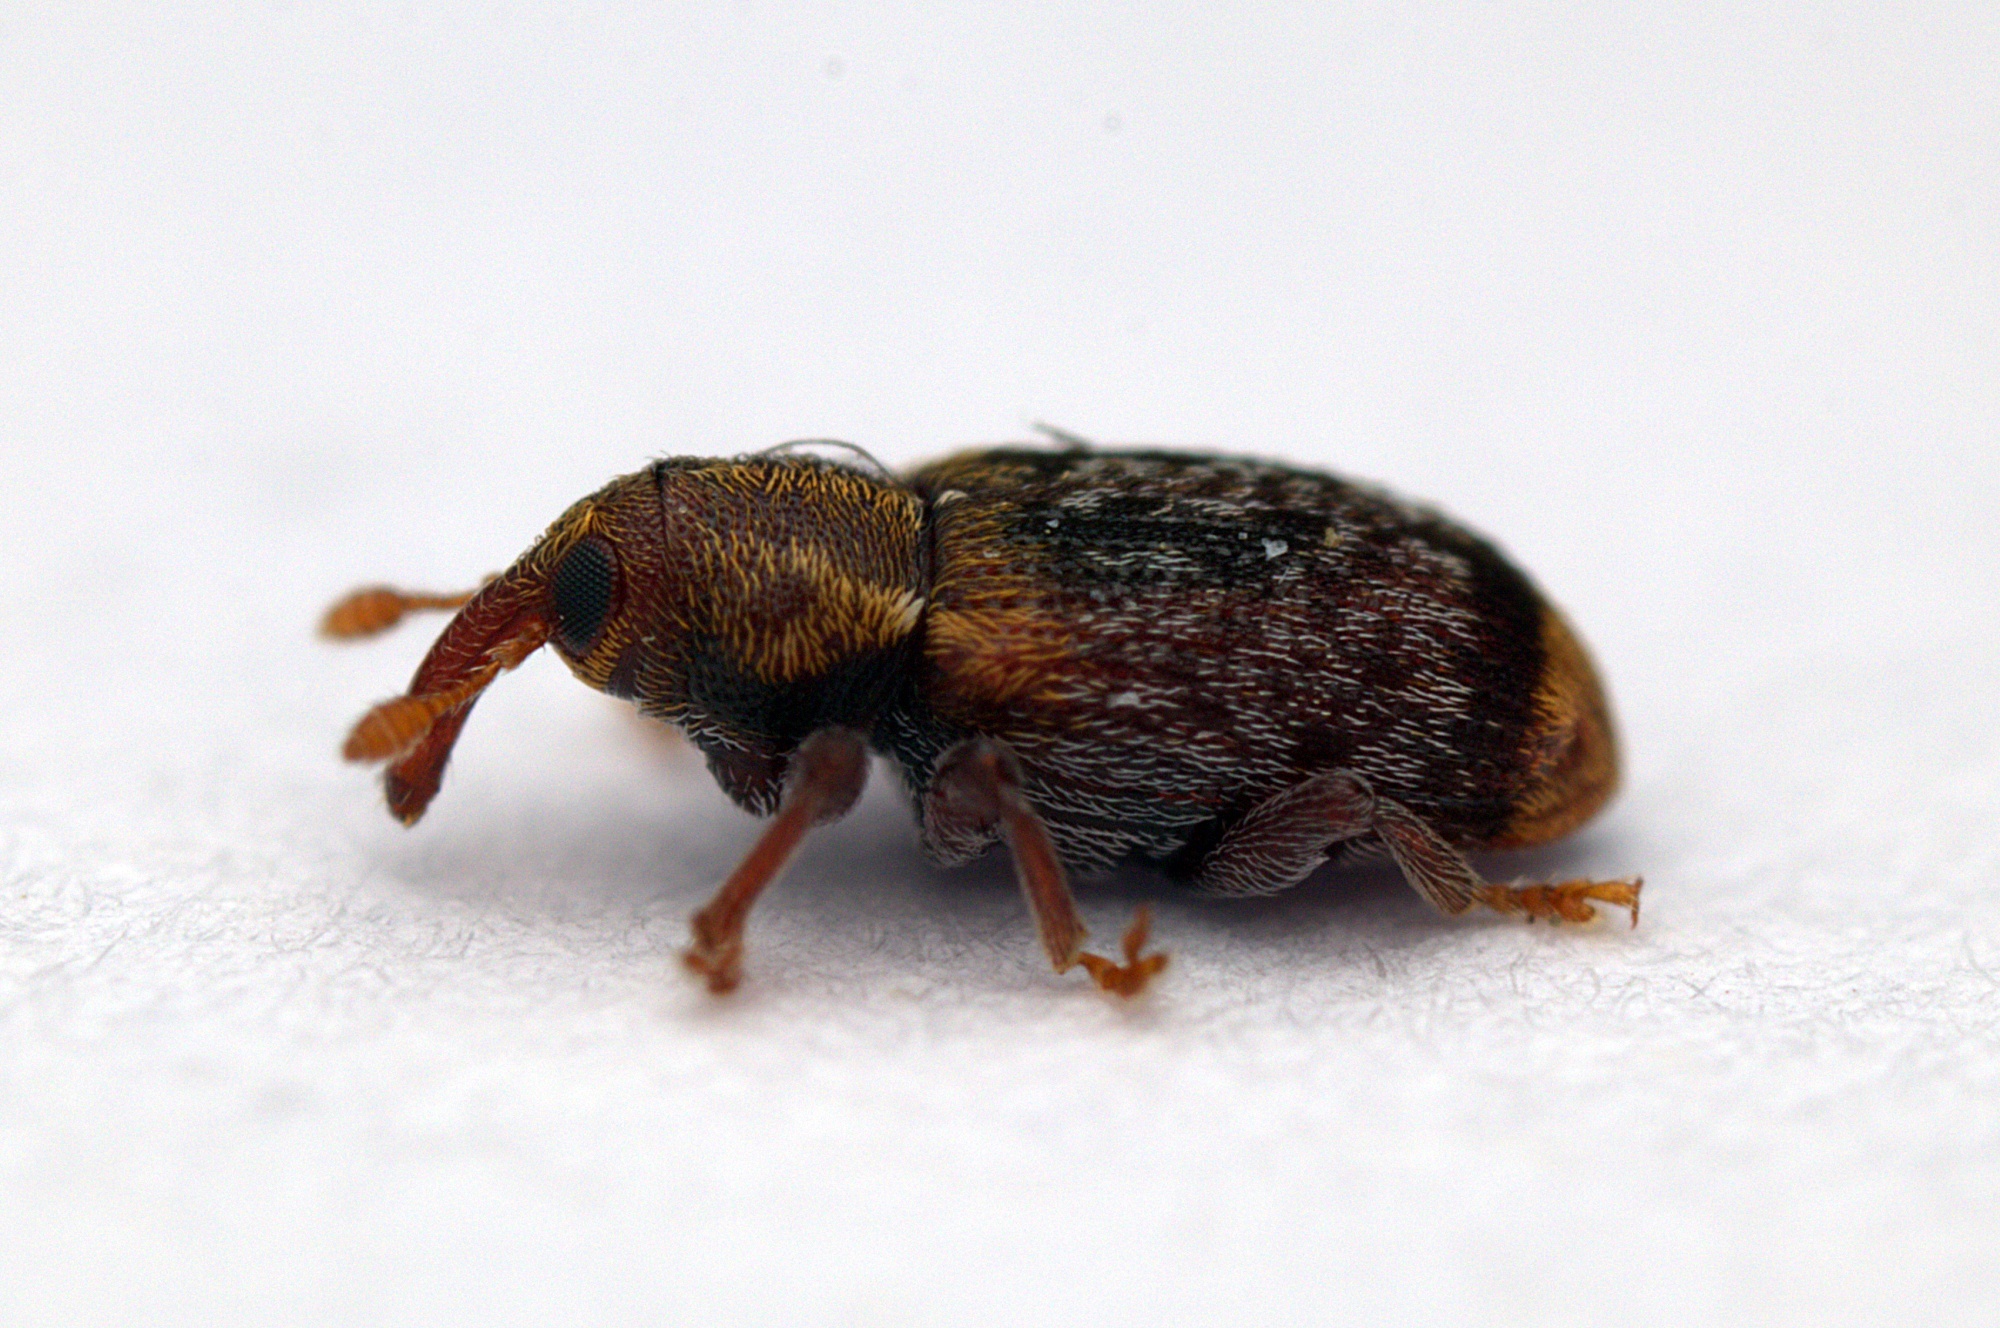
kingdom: Animalia
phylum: Arthropoda
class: Insecta
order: Coleoptera
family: Curculionidae
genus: Peristoreus
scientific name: Peristoreus flavitarsis
